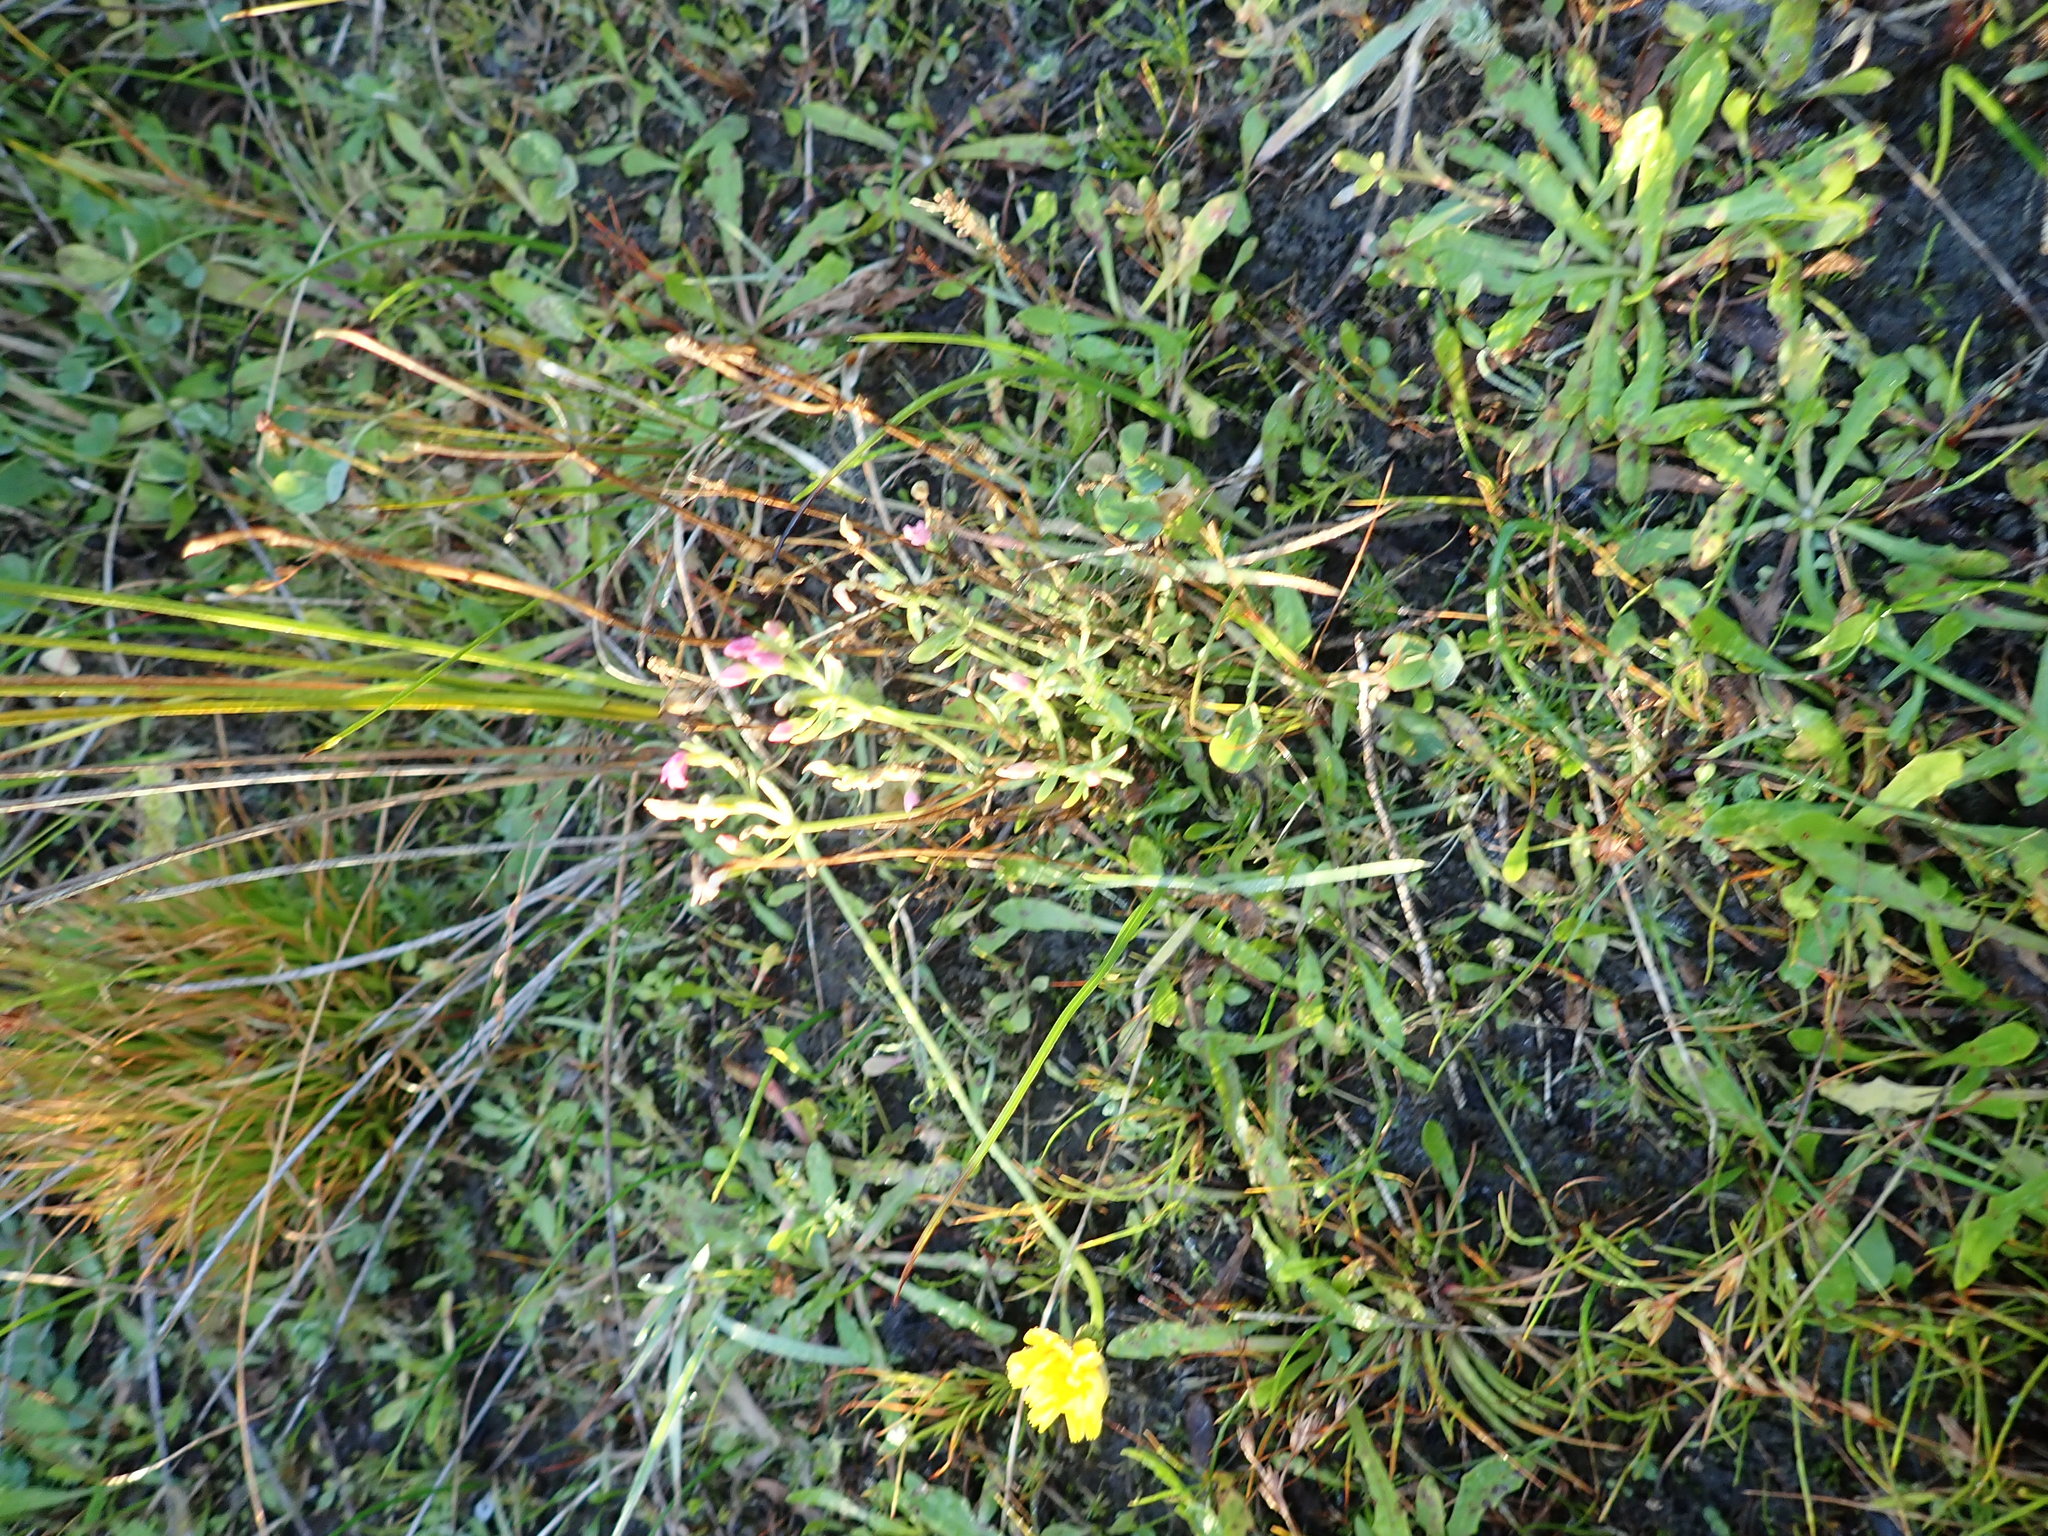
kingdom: Plantae
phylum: Tracheophyta
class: Magnoliopsida
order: Gentianales
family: Gentianaceae
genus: Centaurium
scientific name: Centaurium erythraea
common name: Common centaury
